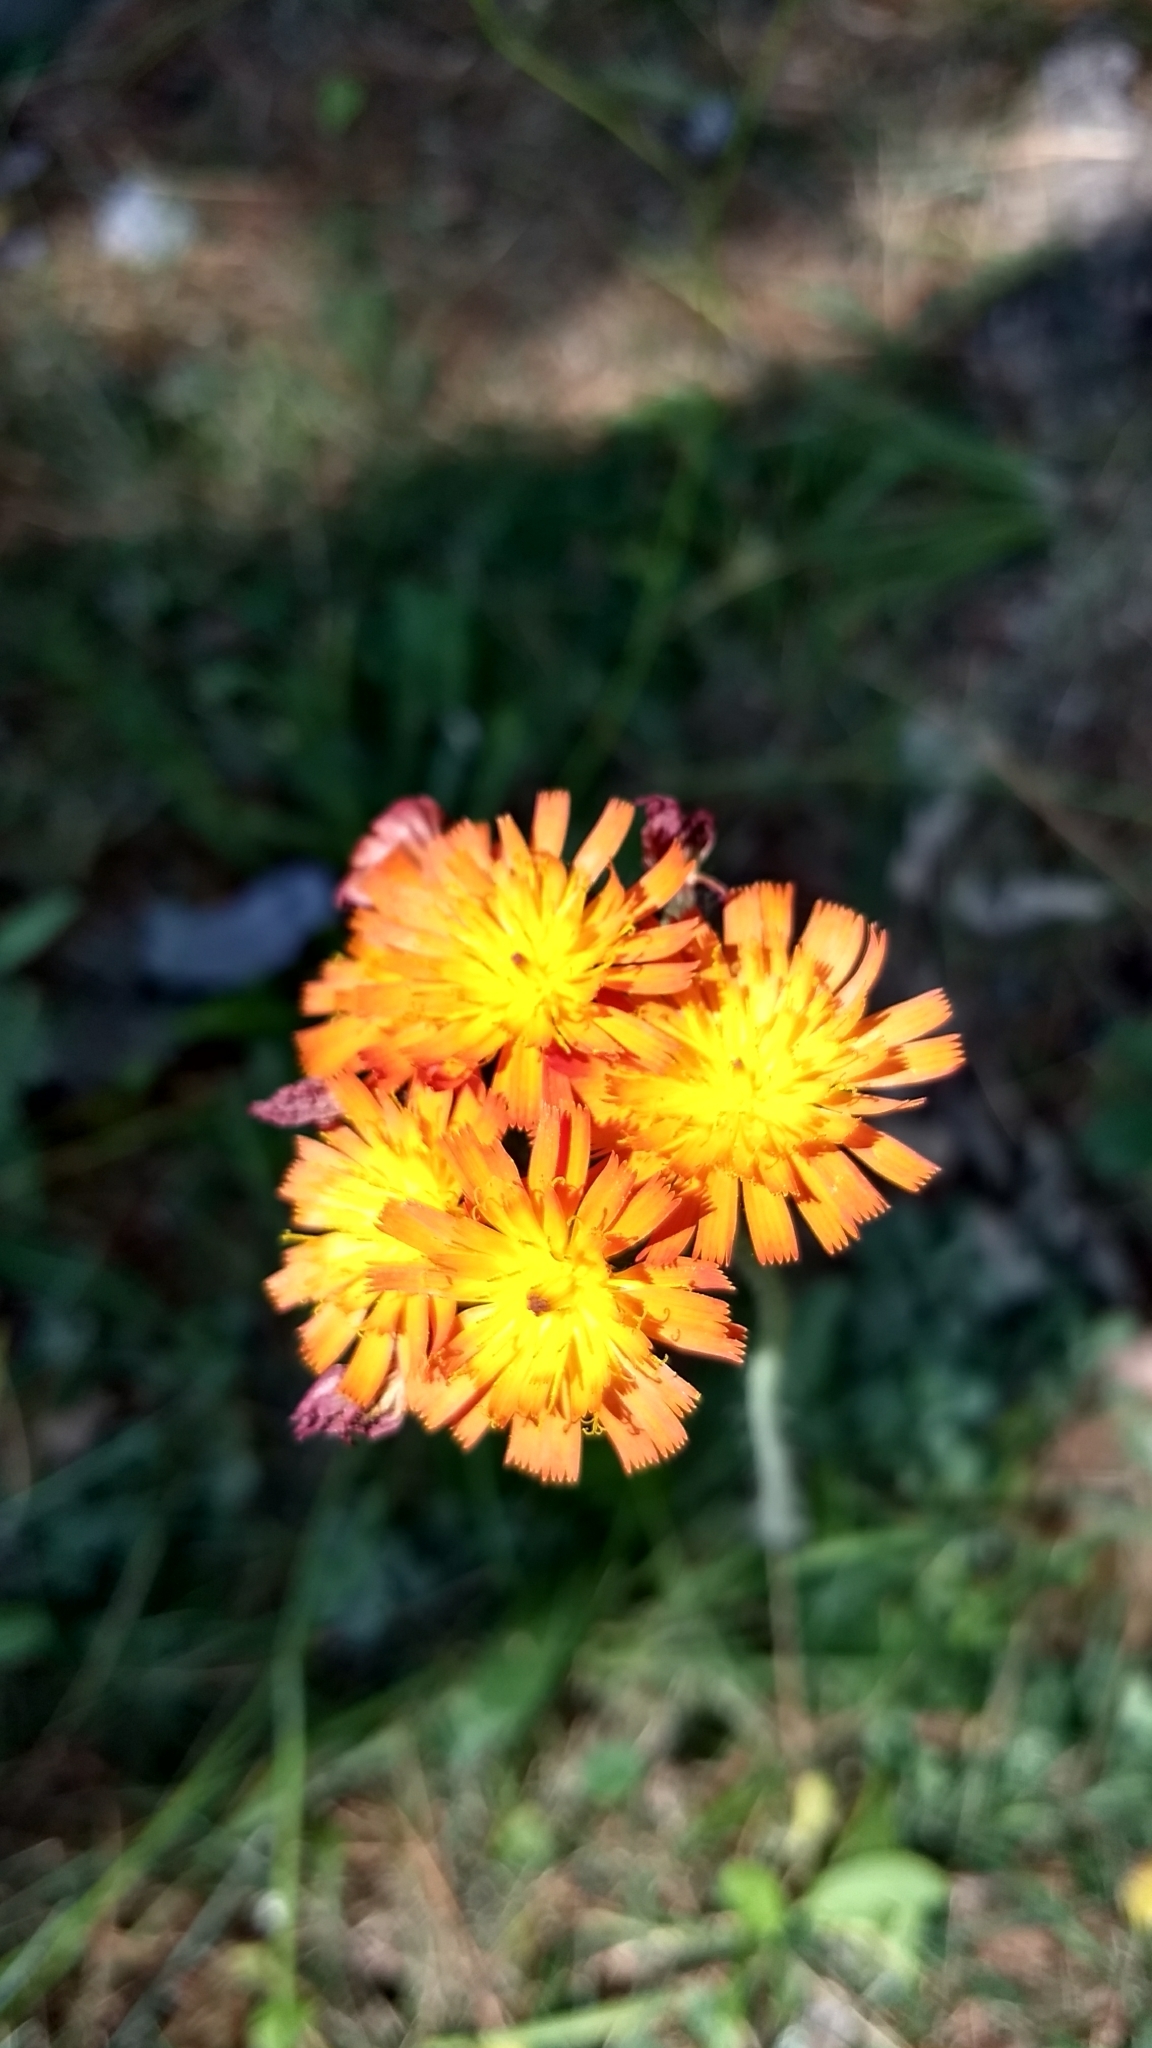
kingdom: Plantae
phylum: Tracheophyta
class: Magnoliopsida
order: Asterales
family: Asteraceae
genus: Pilosella
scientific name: Pilosella aurantiaca
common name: Fox-and-cubs
